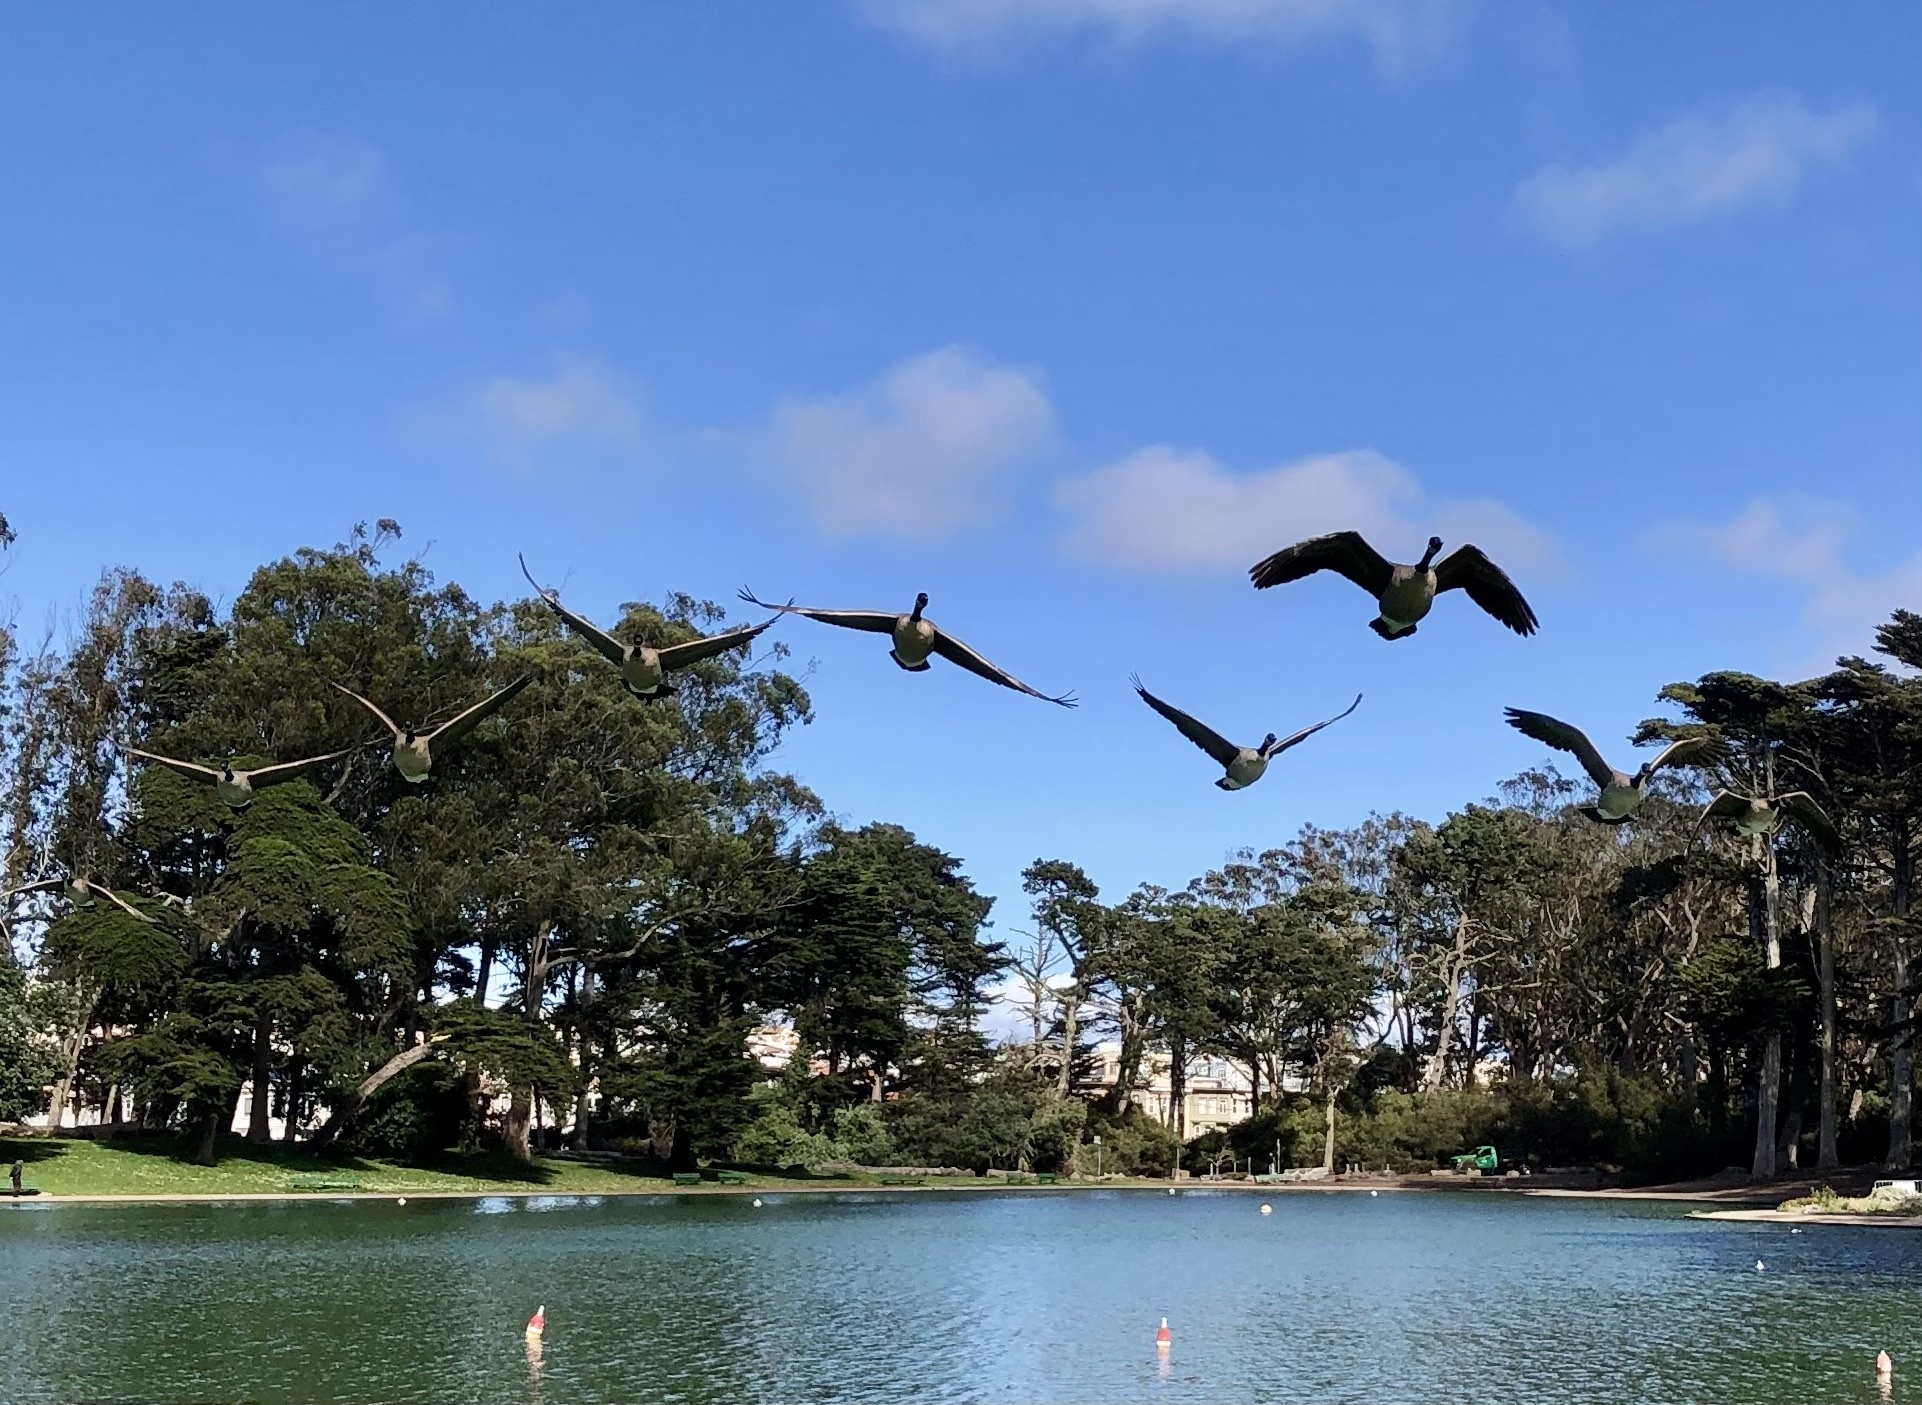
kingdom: Animalia
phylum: Chordata
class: Aves
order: Anseriformes
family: Anatidae
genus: Branta
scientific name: Branta canadensis
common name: Canada goose
